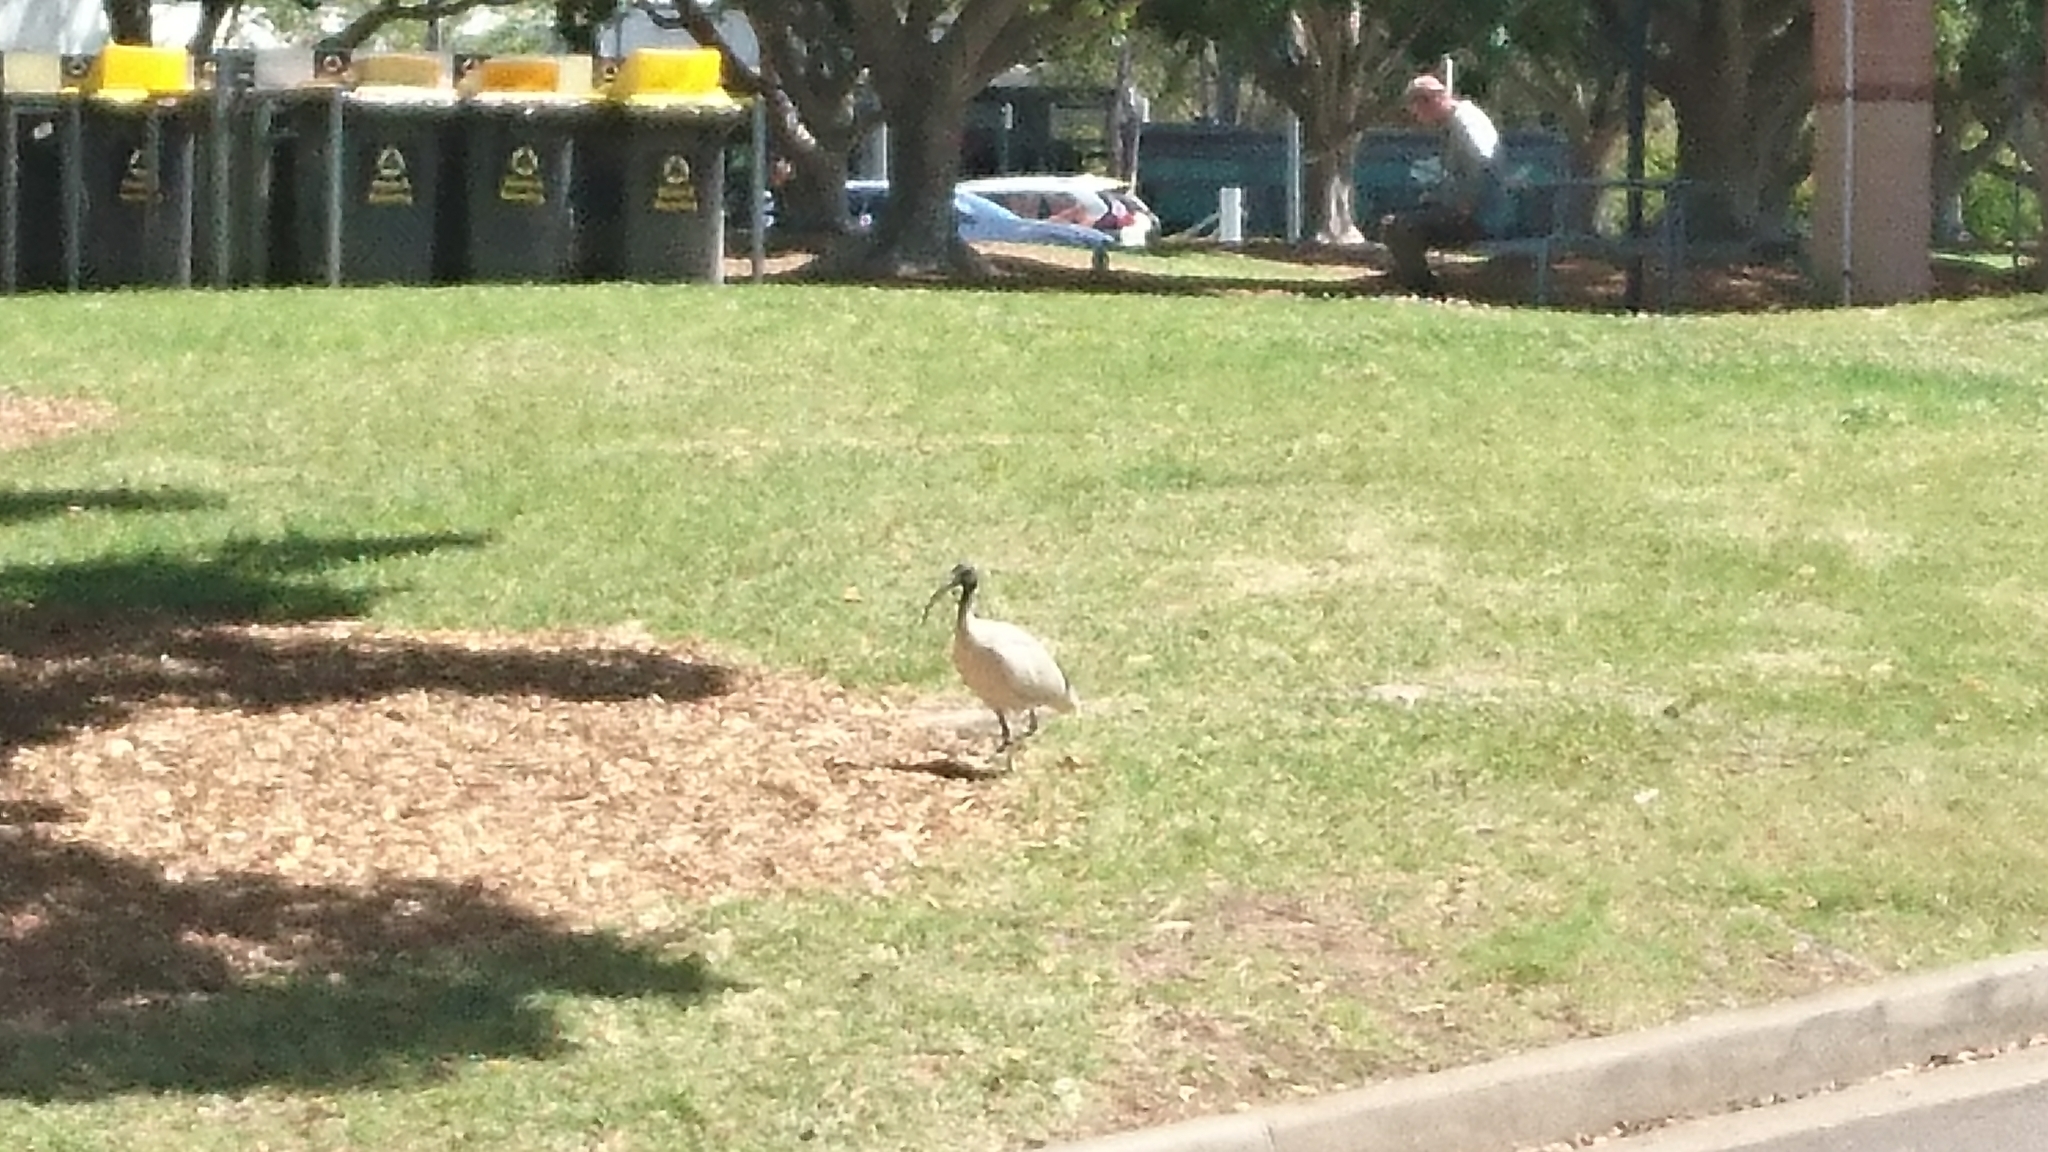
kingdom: Animalia
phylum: Chordata
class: Aves
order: Pelecaniformes
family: Threskiornithidae
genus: Threskiornis
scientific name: Threskiornis molucca
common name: Australian white ibis
